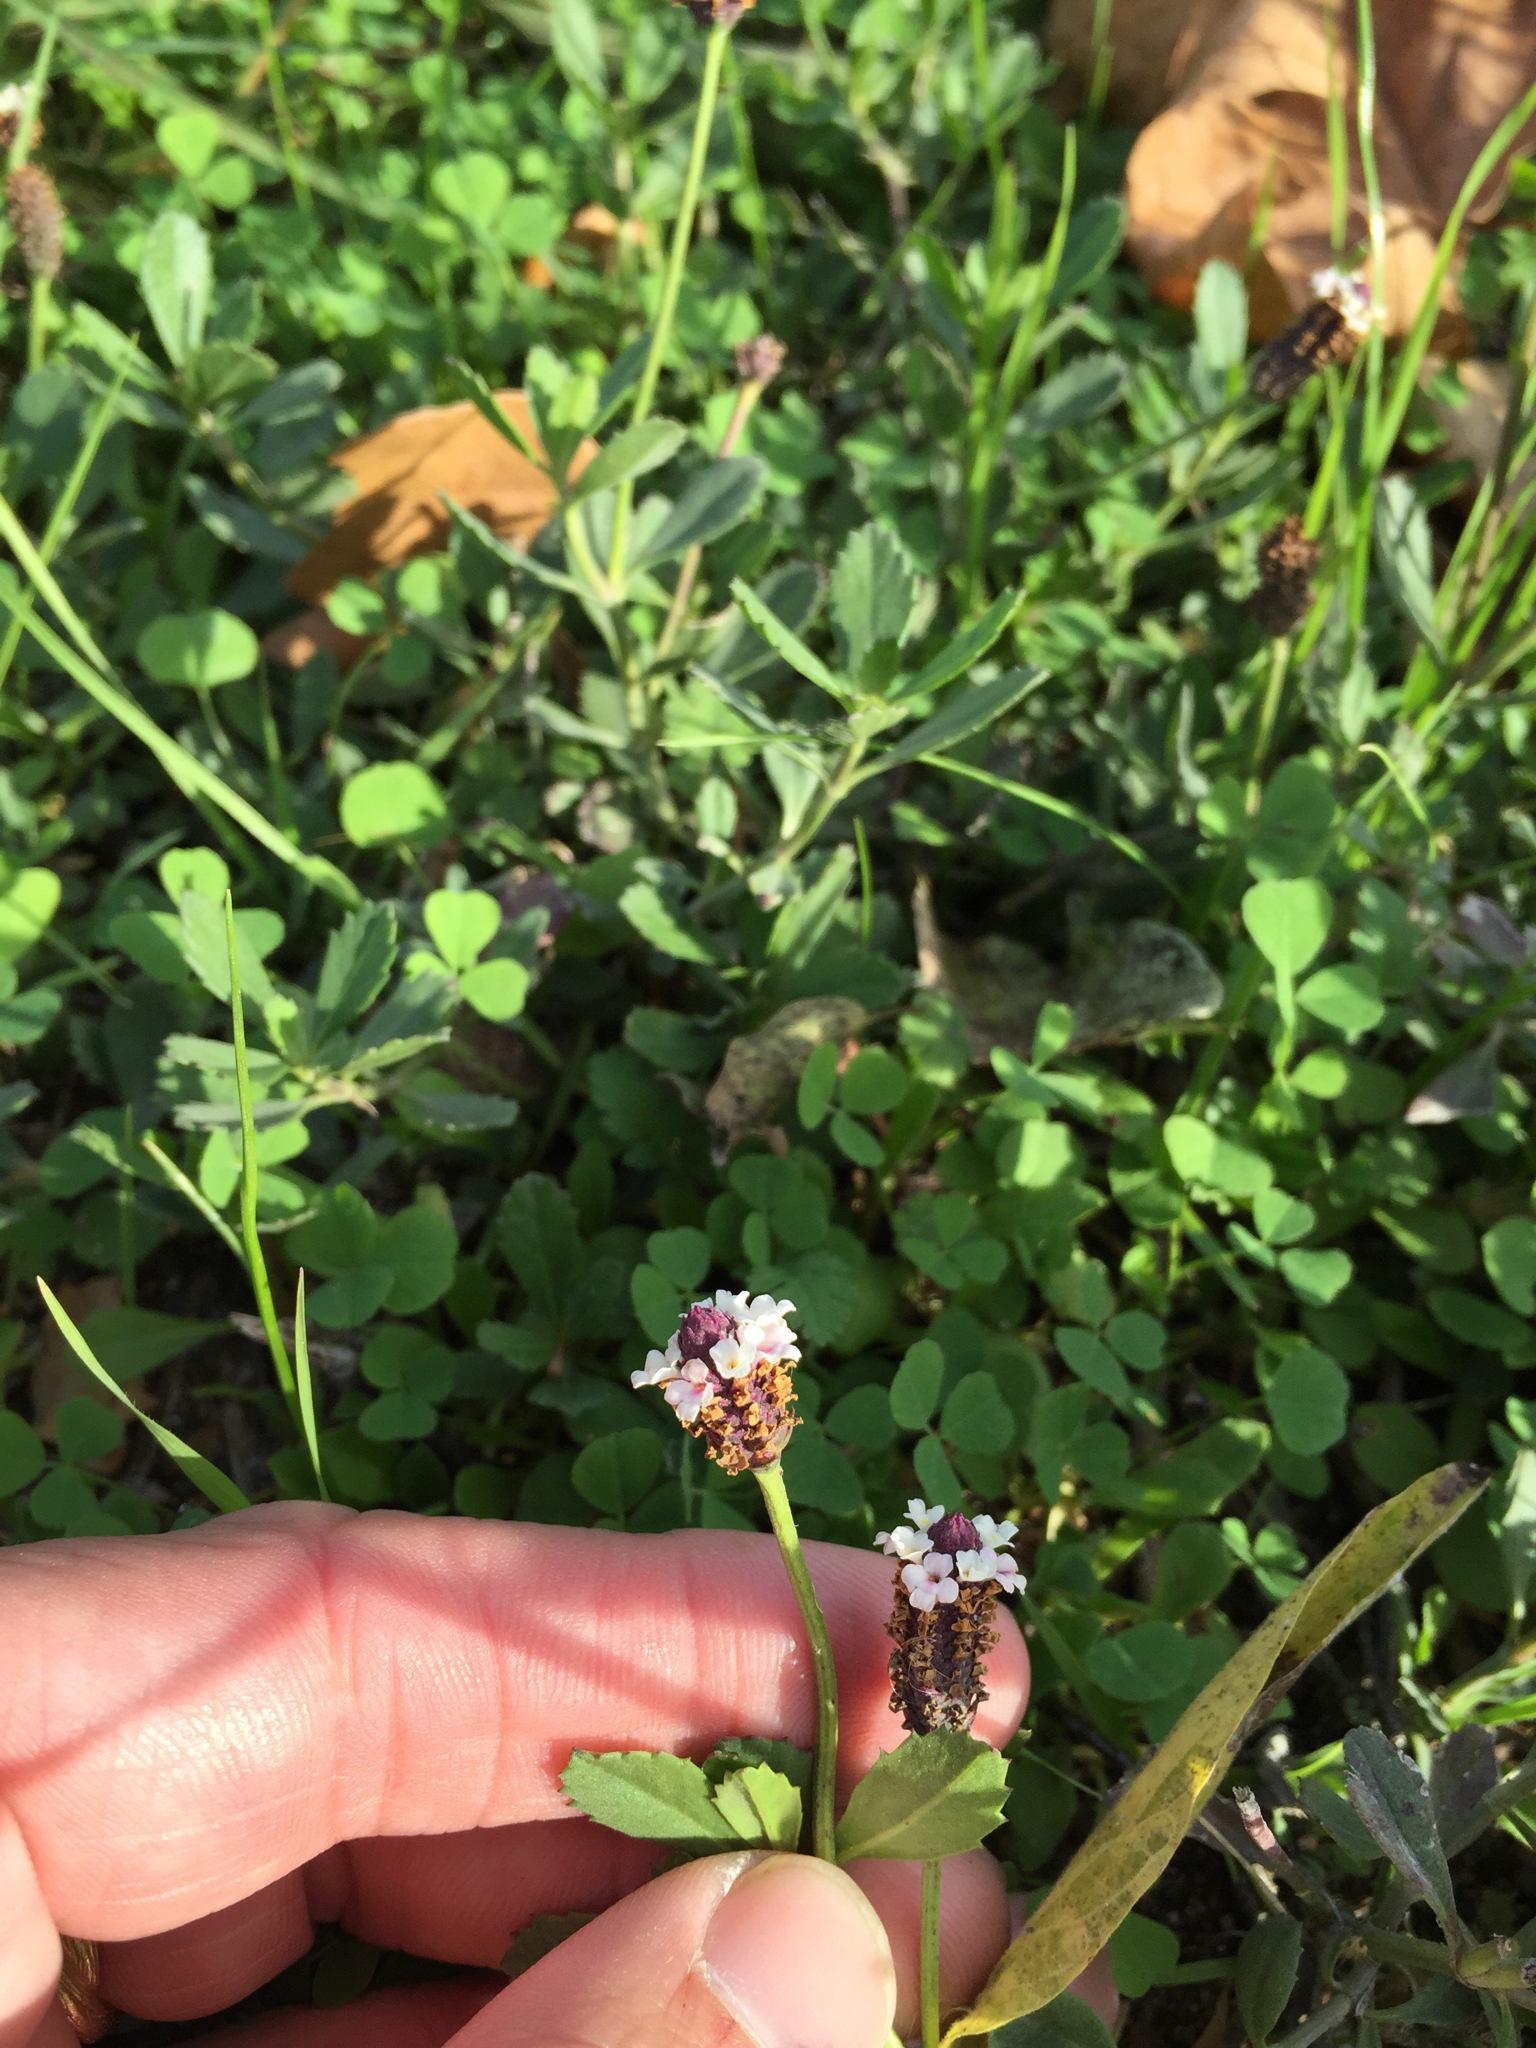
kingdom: Plantae
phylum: Tracheophyta
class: Magnoliopsida
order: Lamiales
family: Verbenaceae
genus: Phyla
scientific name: Phyla nodiflora
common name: Frogfruit
